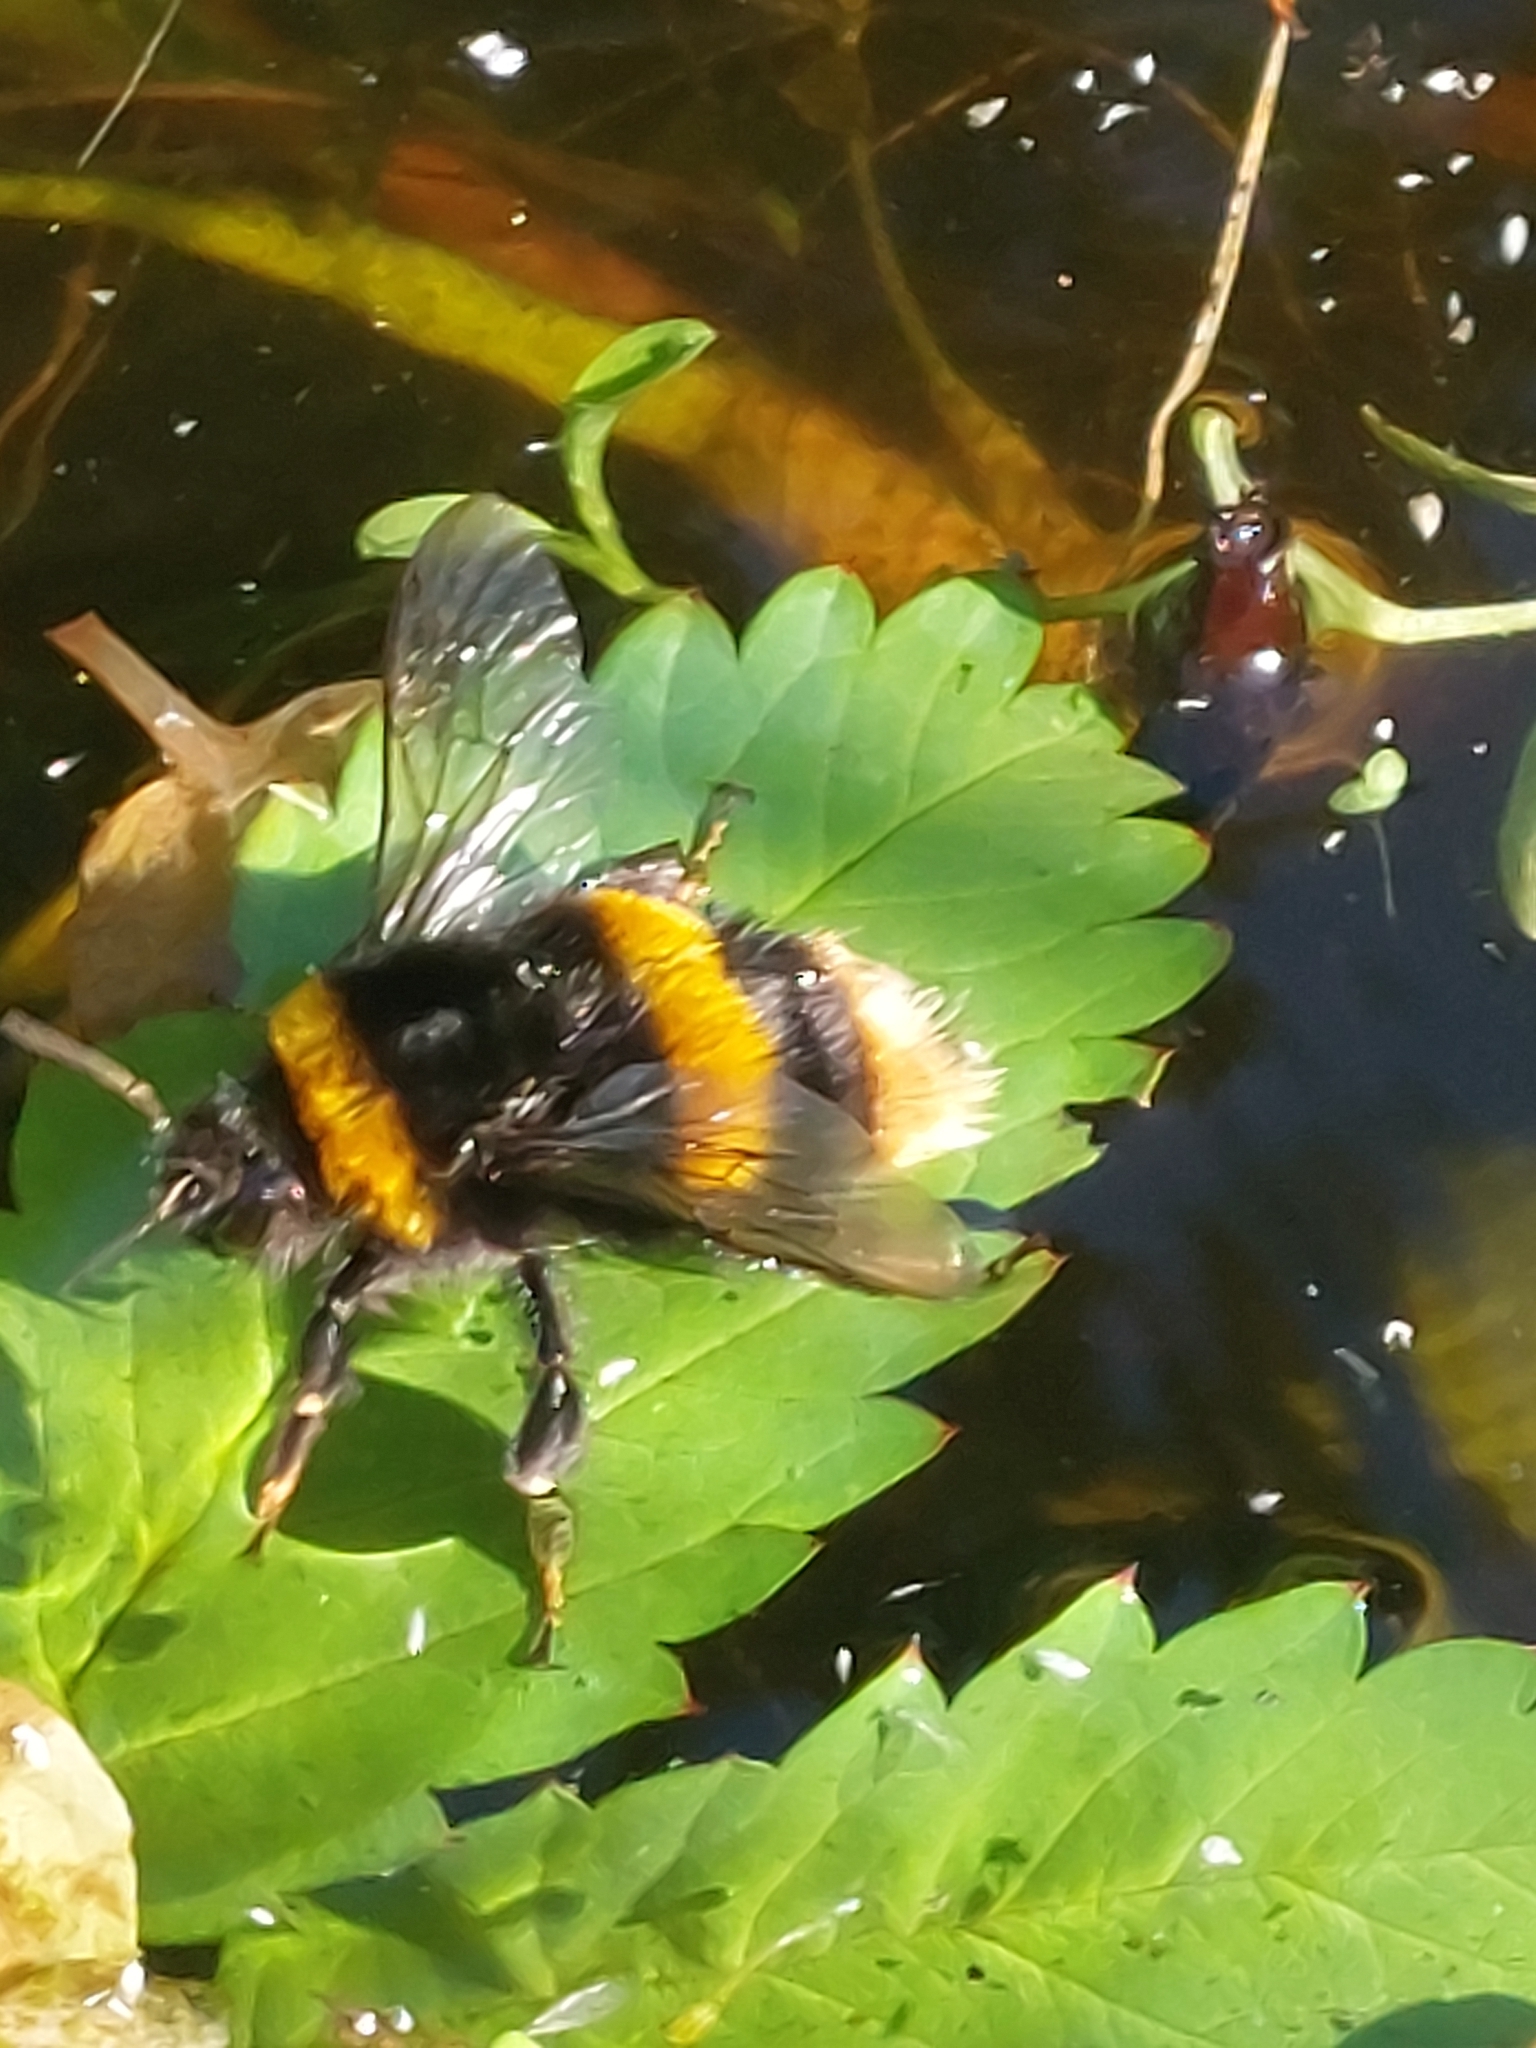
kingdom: Animalia
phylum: Arthropoda
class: Insecta
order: Hymenoptera
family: Apidae
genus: Bombus
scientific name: Bombus terrestris
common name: Buff-tailed bumblebee
